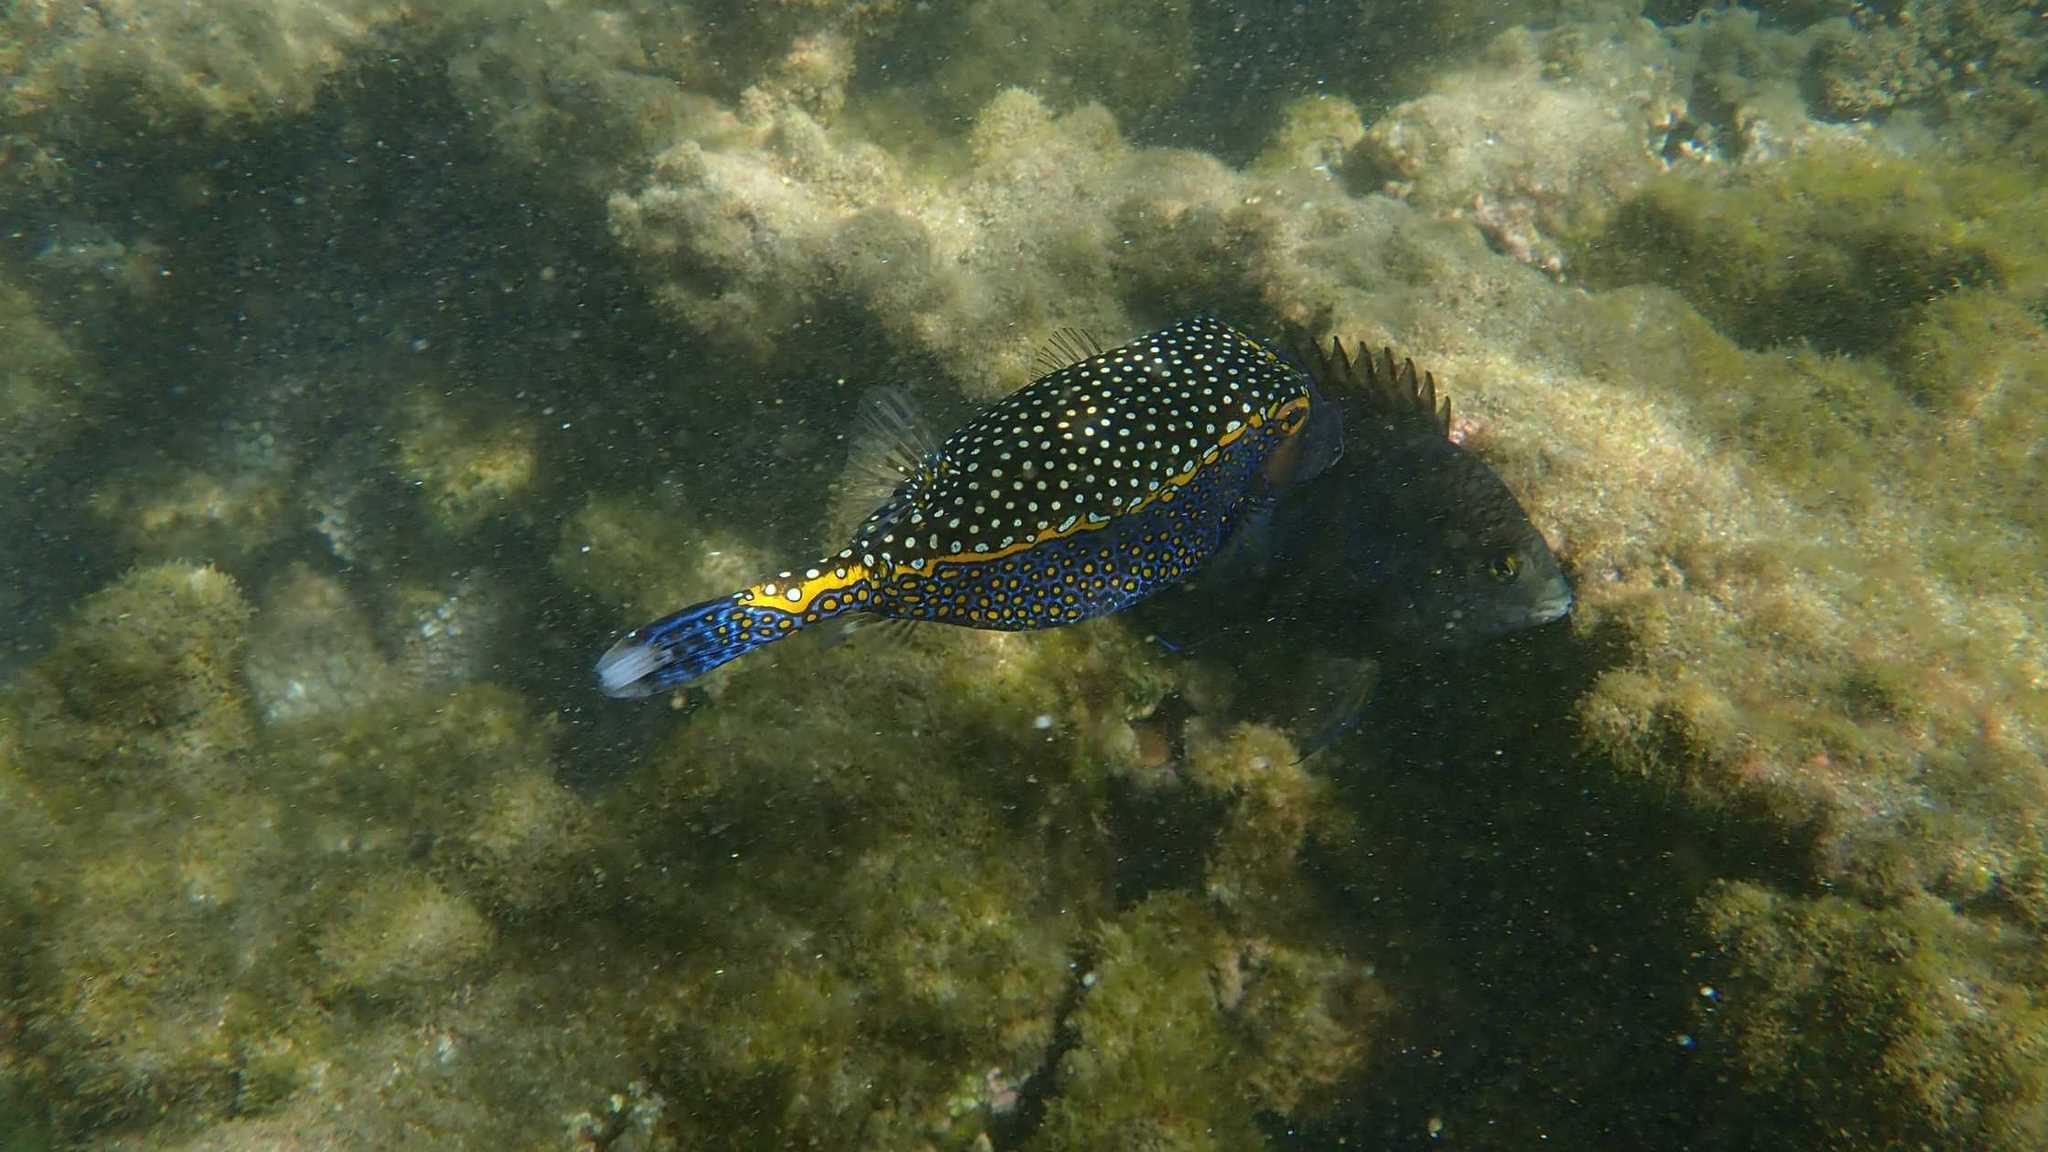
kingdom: Animalia
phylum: Chordata
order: Tetraodontiformes
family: Ostraciidae
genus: Ostracion
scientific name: Ostracion meleagris
